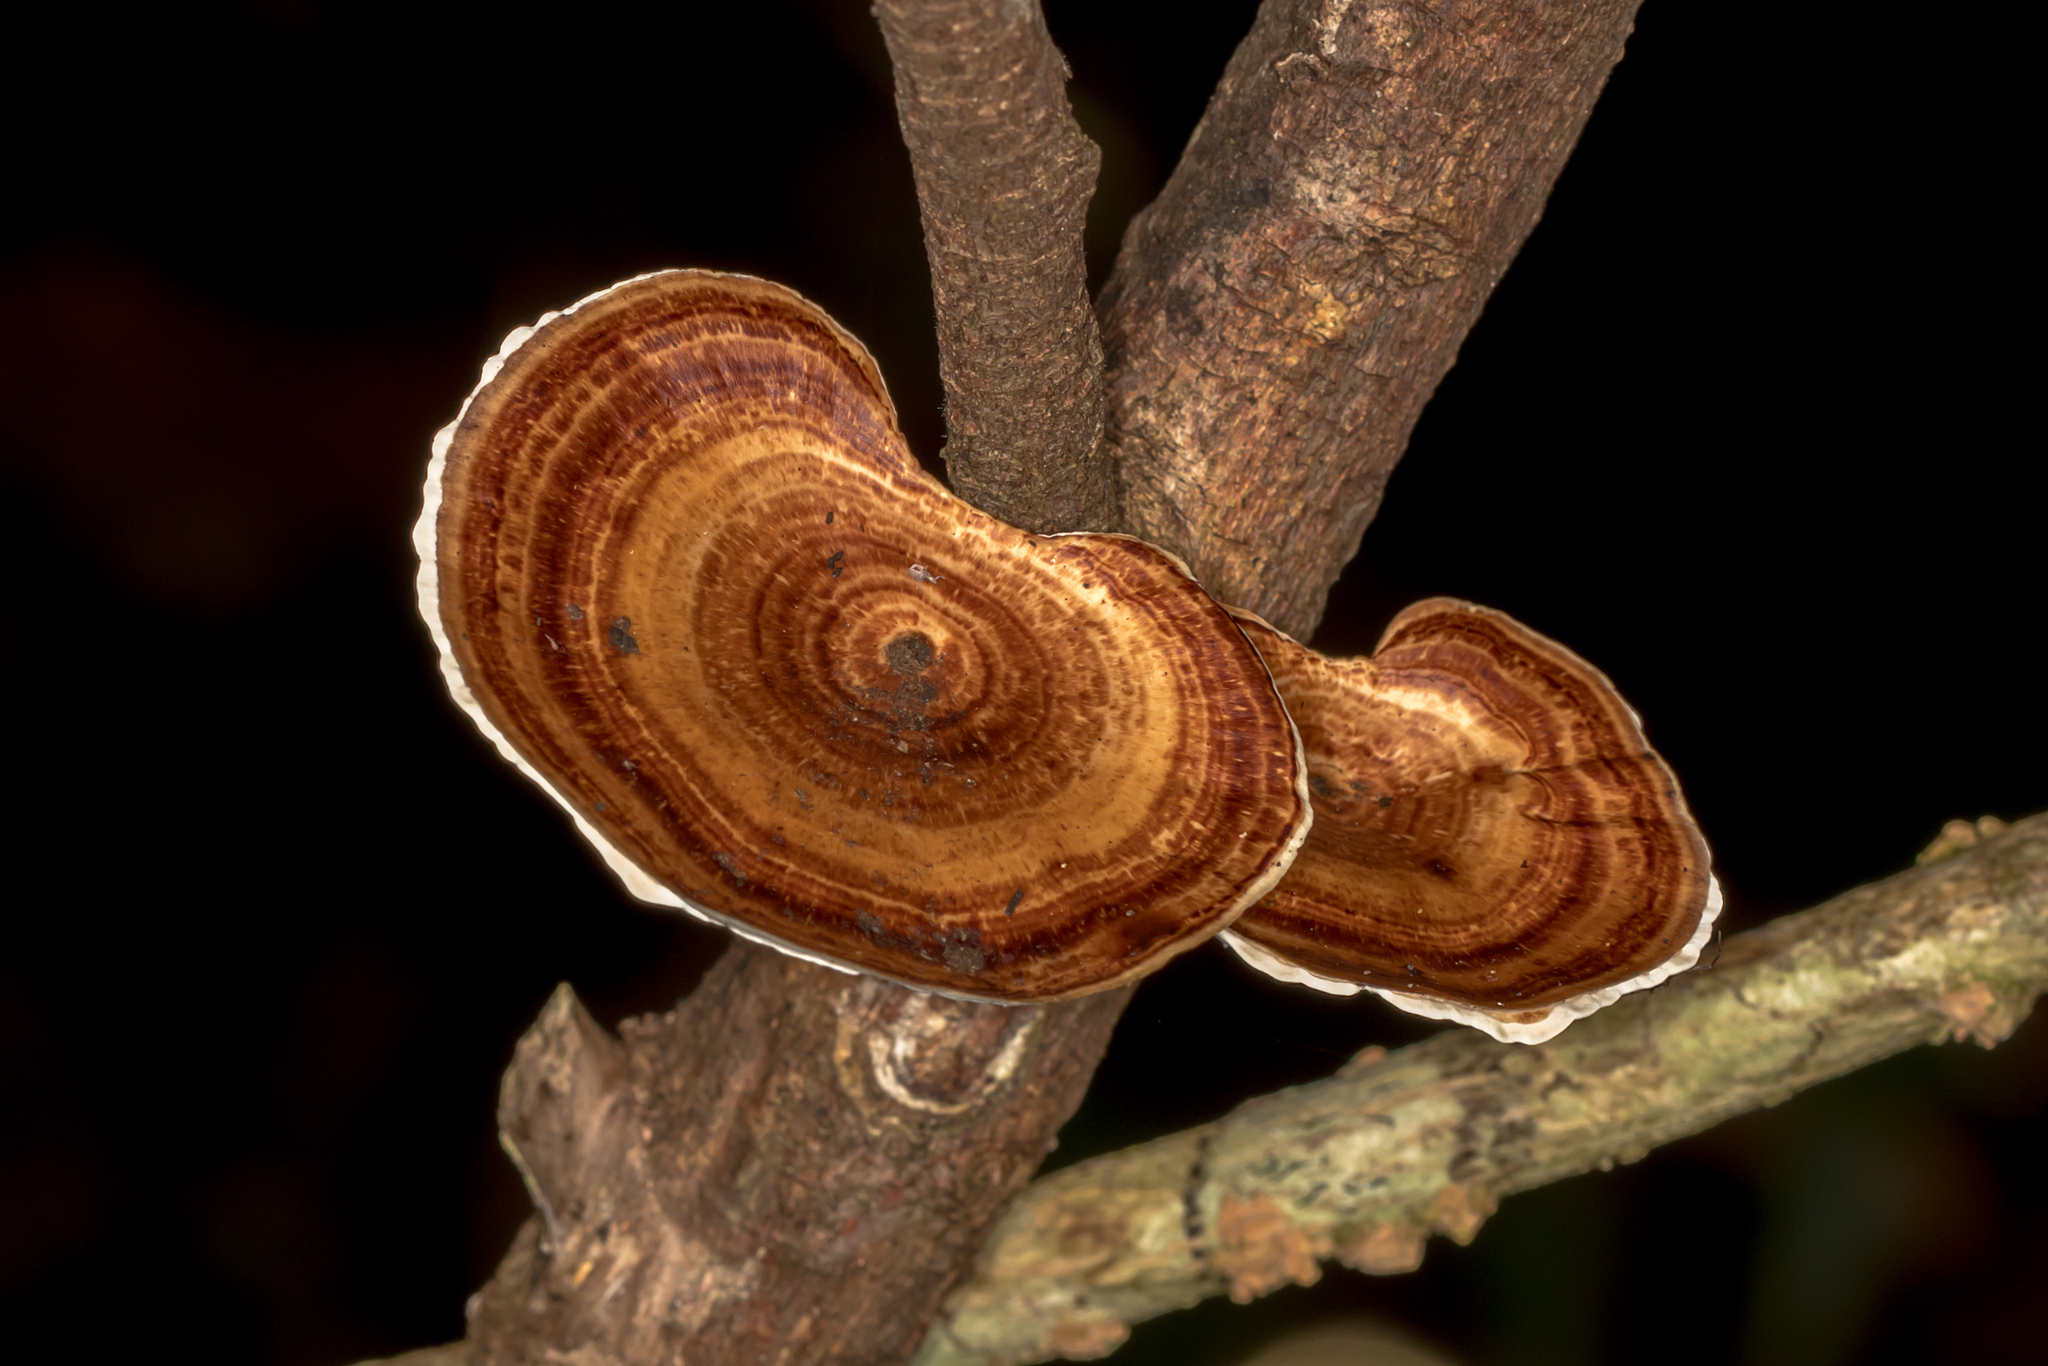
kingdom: Fungi
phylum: Basidiomycota
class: Agaricomycetes
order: Polyporales
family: Polyporaceae
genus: Microporus
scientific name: Microporus xanthopus
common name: Yellow-stemmed micropore
